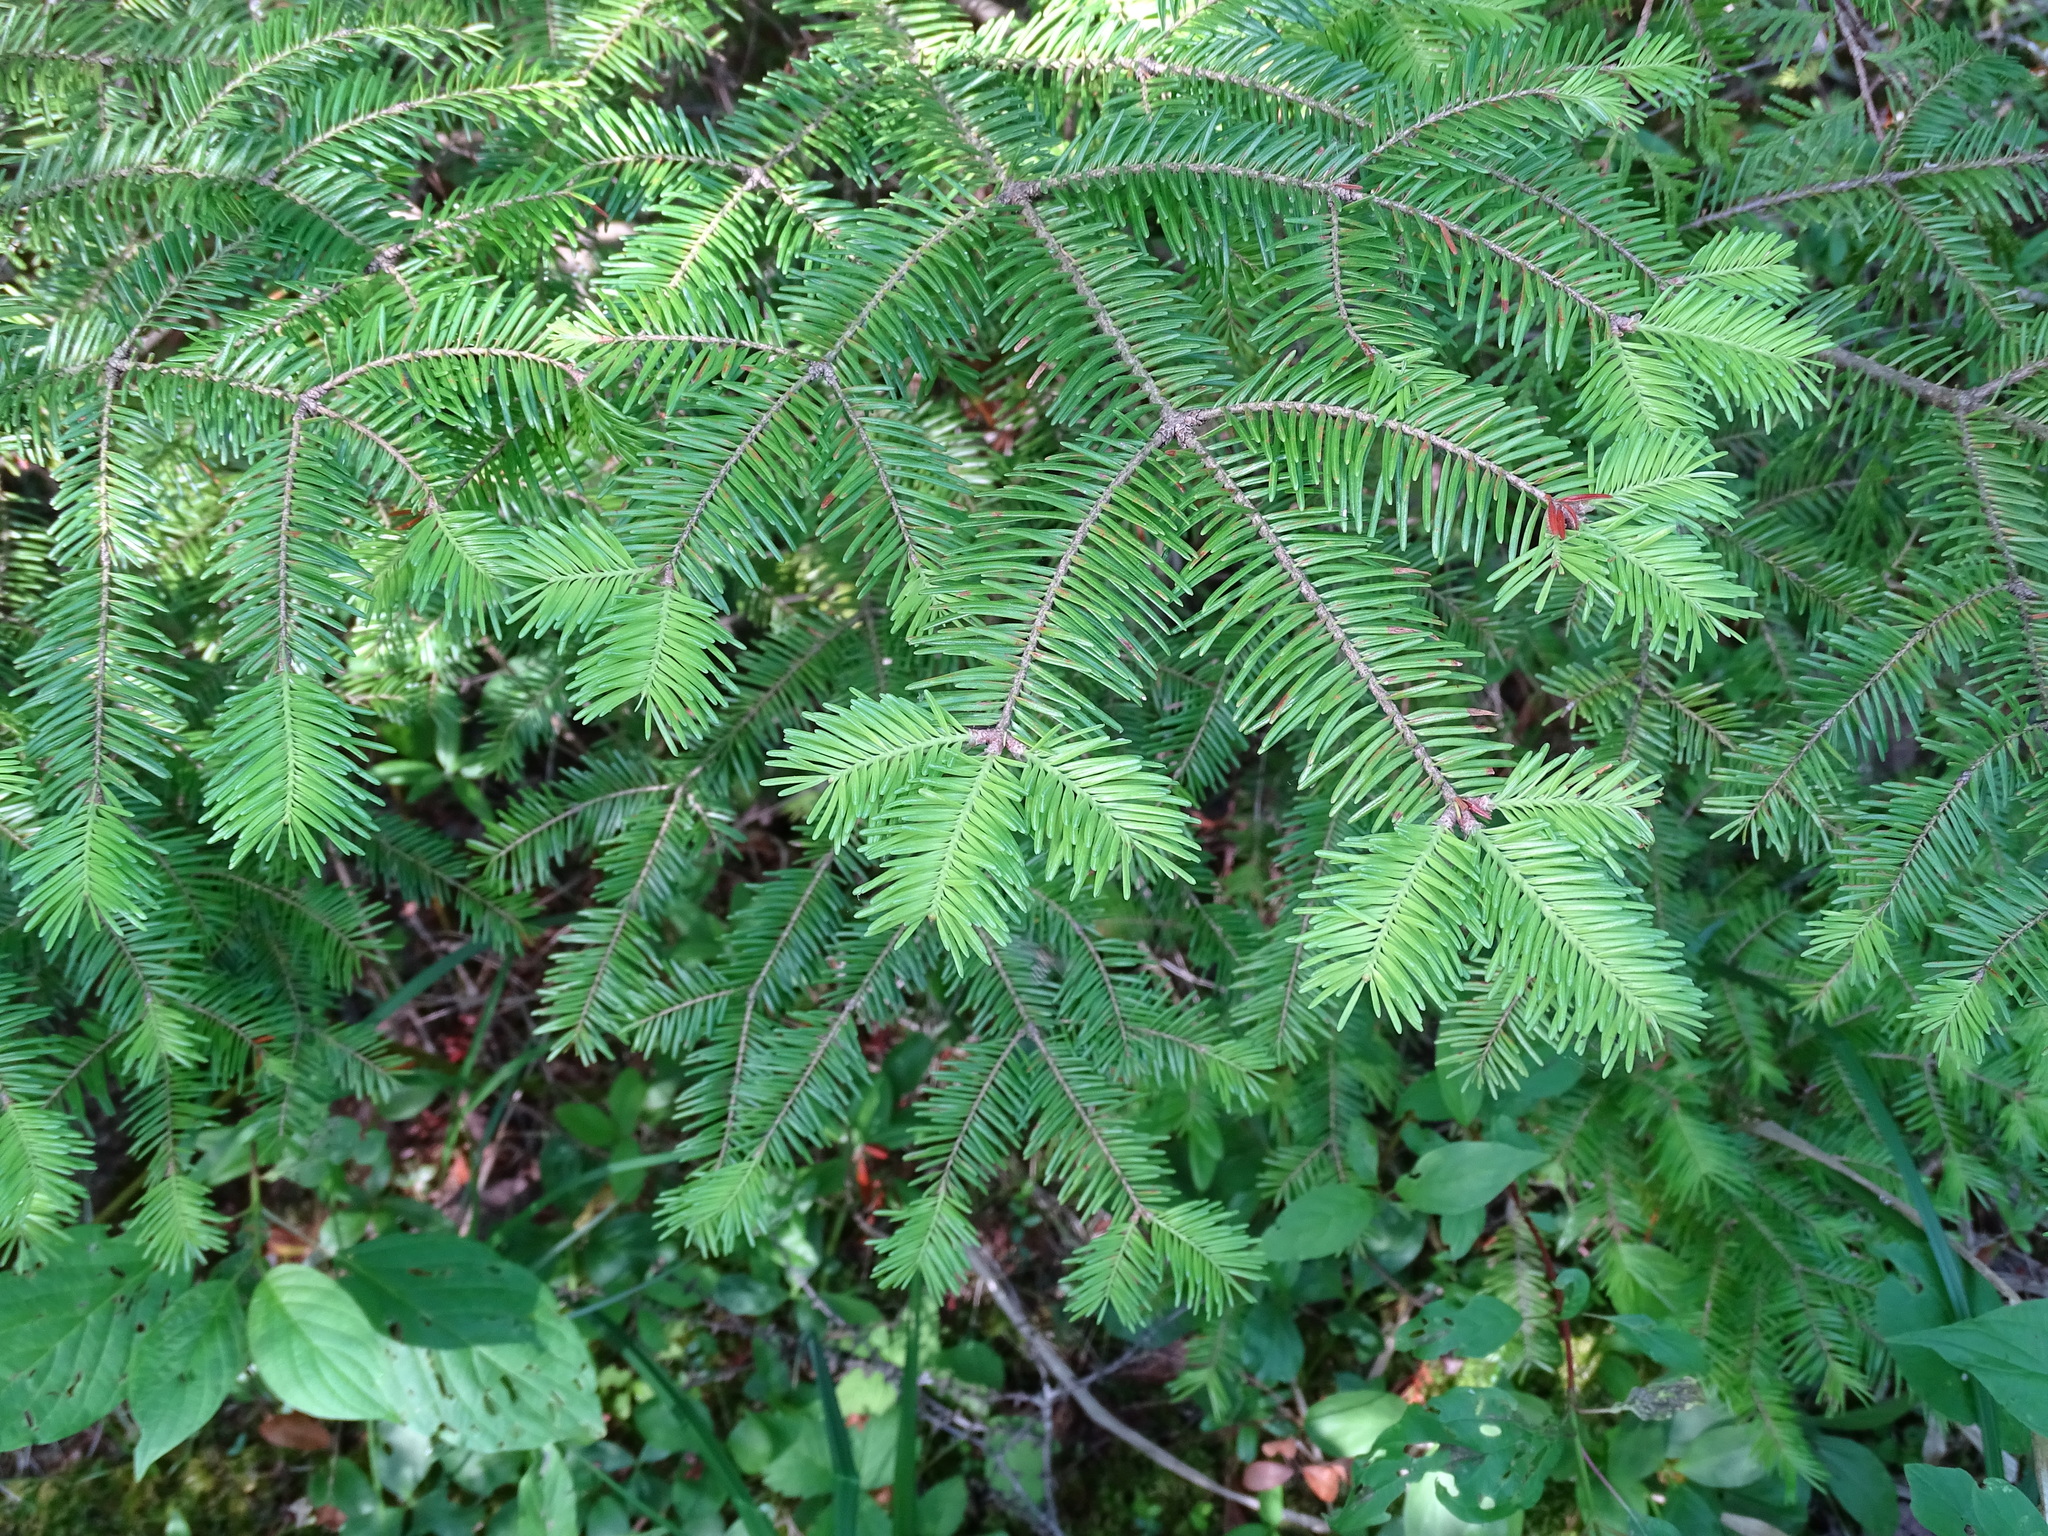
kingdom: Plantae
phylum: Tracheophyta
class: Pinopsida
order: Pinales
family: Pinaceae
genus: Abies
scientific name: Abies balsamea
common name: Balsam fir
